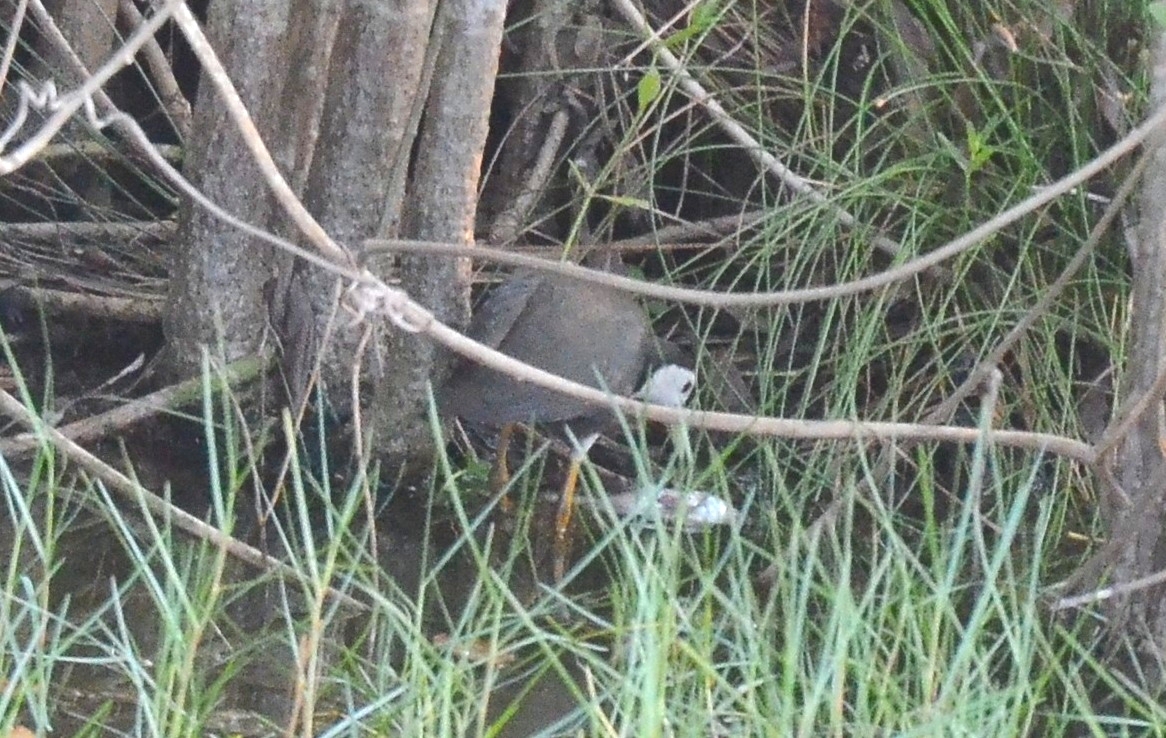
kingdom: Animalia
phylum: Chordata
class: Aves
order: Gruiformes
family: Rallidae
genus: Amaurornis
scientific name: Amaurornis phoenicurus
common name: White-breasted waterhen
